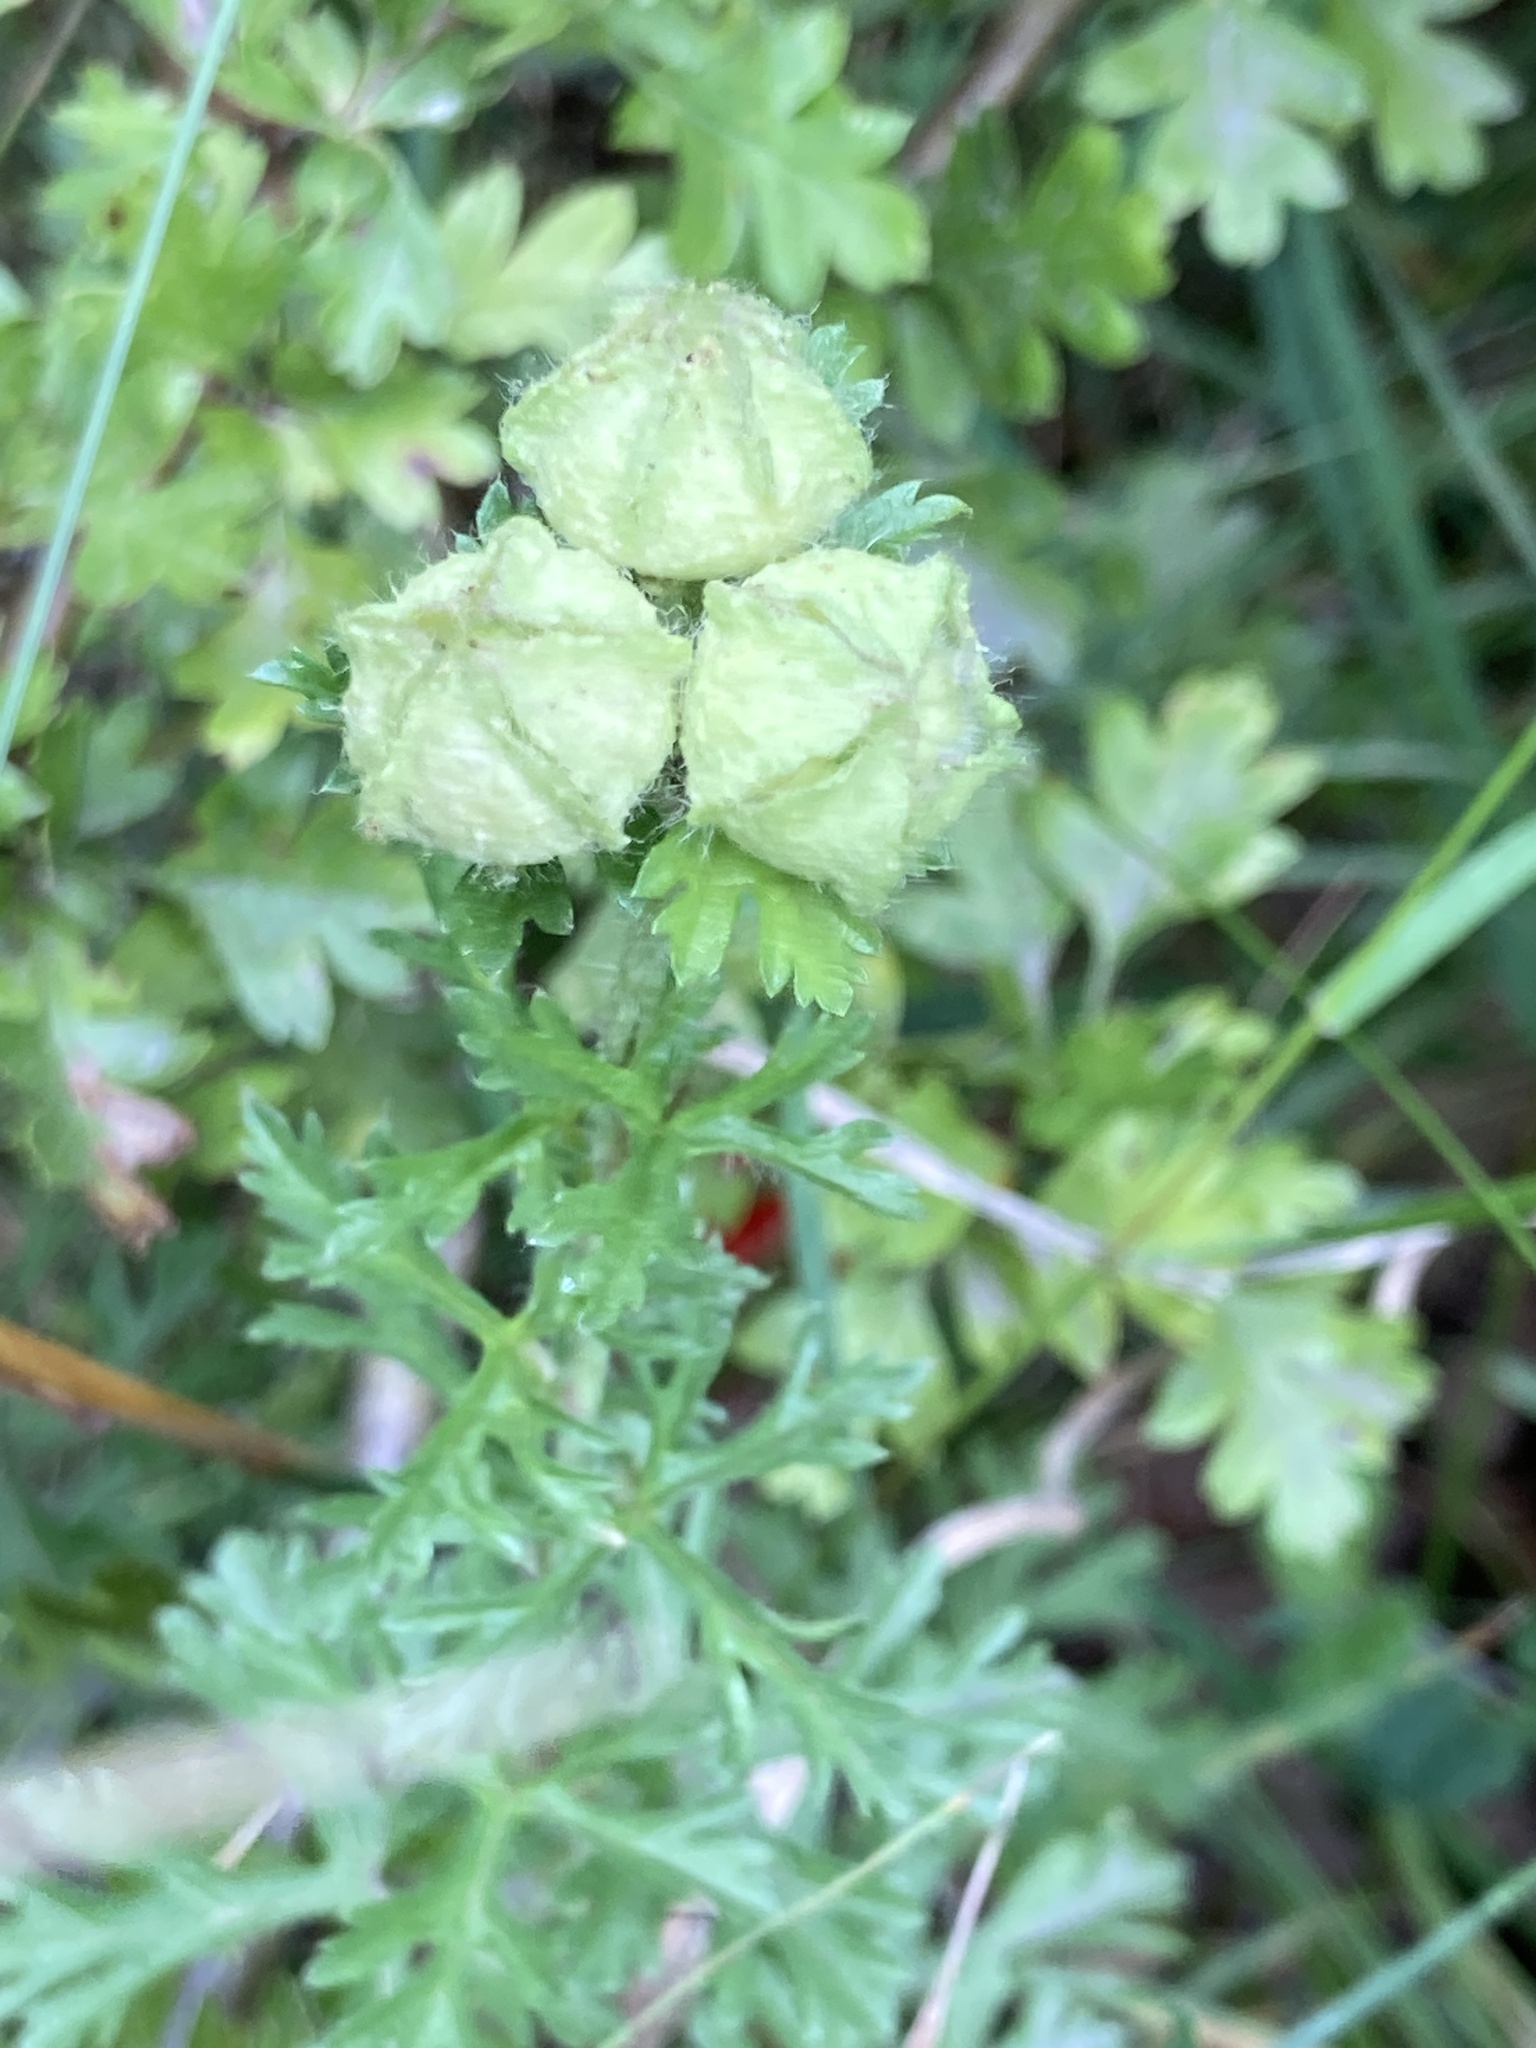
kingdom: Plantae
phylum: Tracheophyta
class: Magnoliopsida
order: Malvales
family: Malvaceae
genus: Malva
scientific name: Malva moschata
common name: Musk mallow
